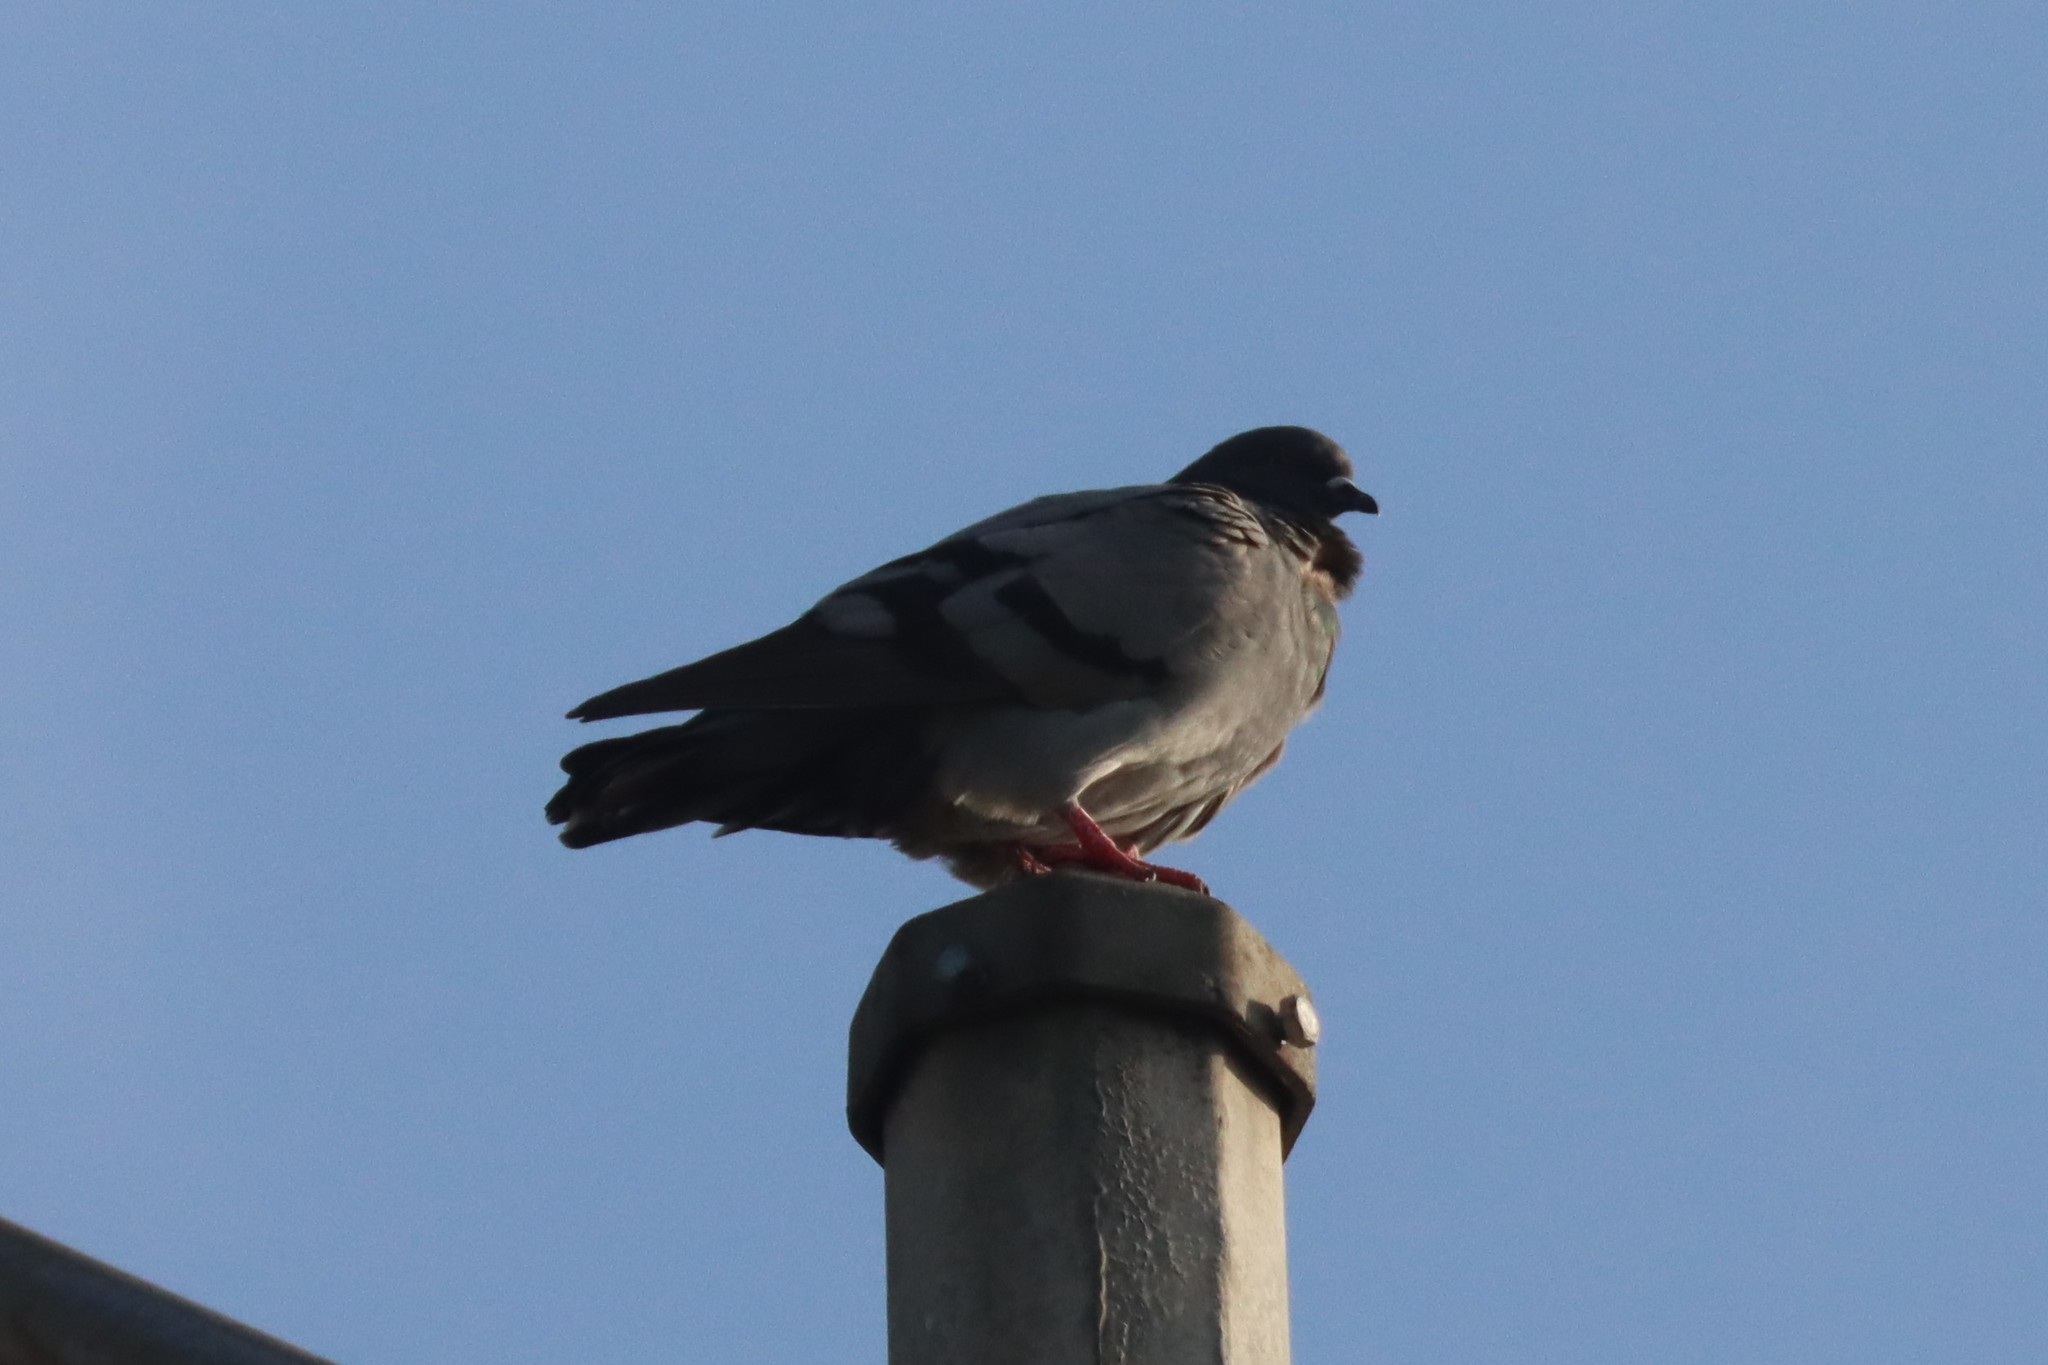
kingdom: Animalia
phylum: Chordata
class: Aves
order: Columbiformes
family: Columbidae
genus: Columba
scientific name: Columba livia
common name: Rock pigeon
